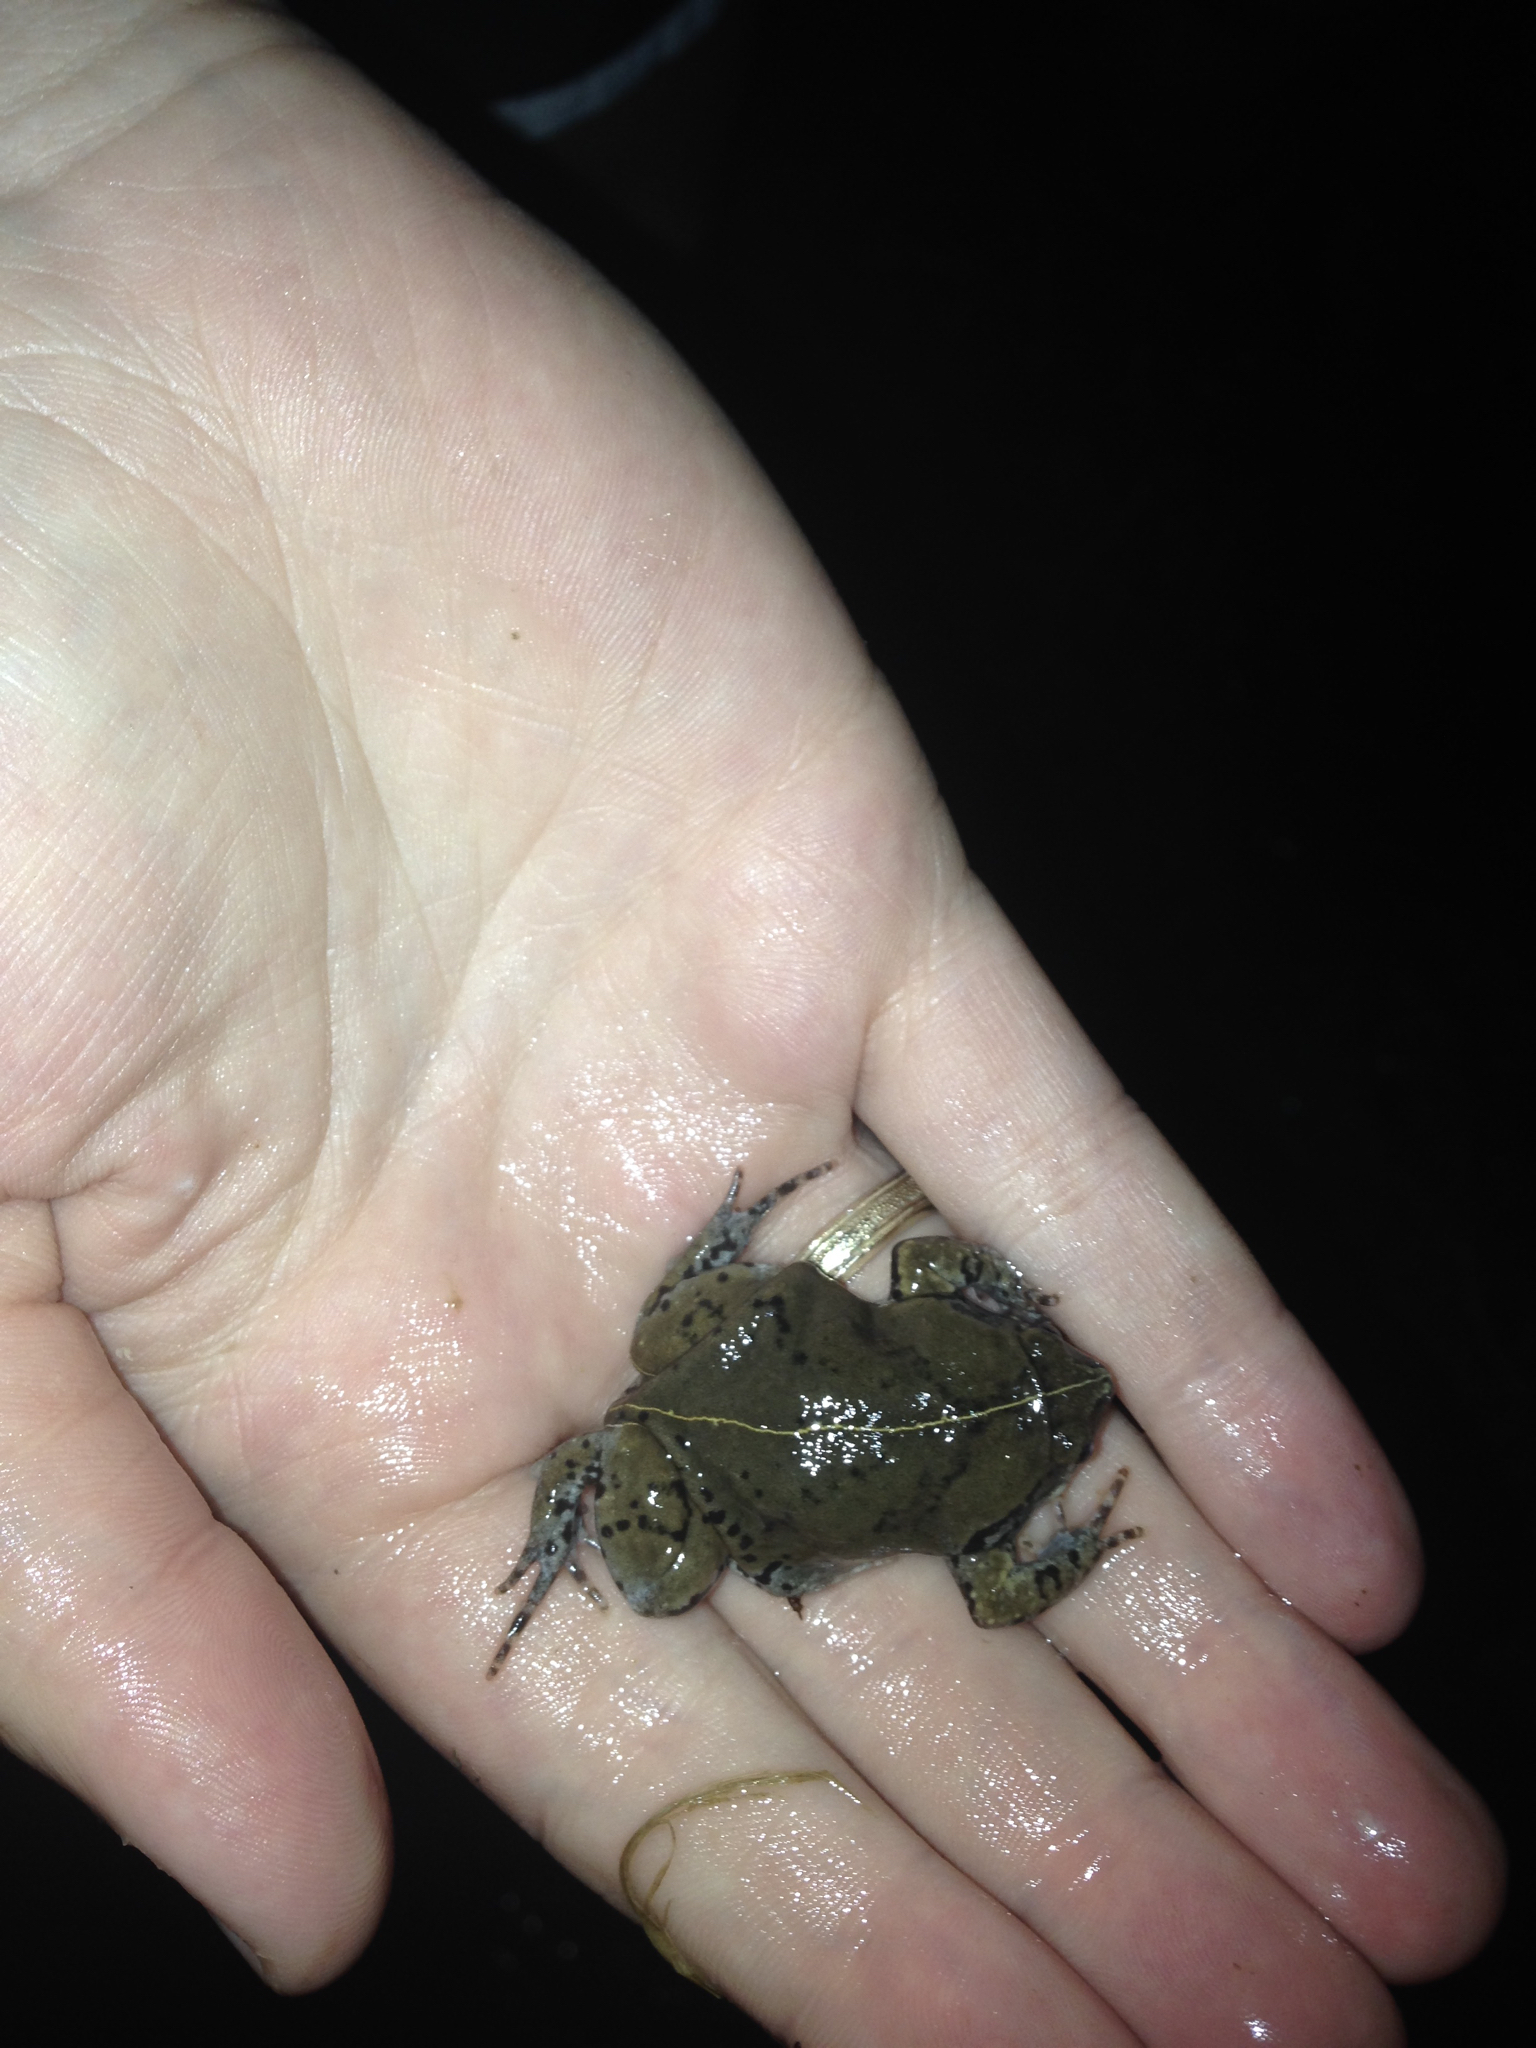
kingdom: Animalia
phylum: Chordata
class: Amphibia
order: Anura
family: Microhylidae
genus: Hypopachus
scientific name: Hypopachus variolosus
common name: Sheep frog
